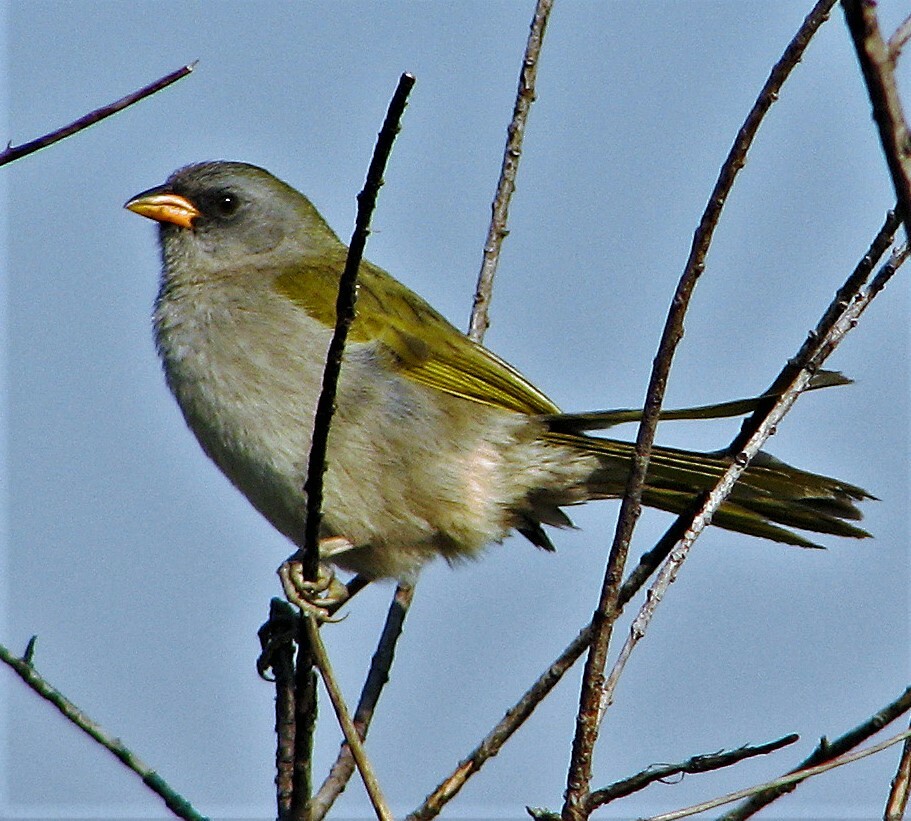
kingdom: Animalia
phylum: Chordata
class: Aves
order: Passeriformes
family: Thraupidae
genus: Embernagra
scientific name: Embernagra platensis
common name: Pampa finch
